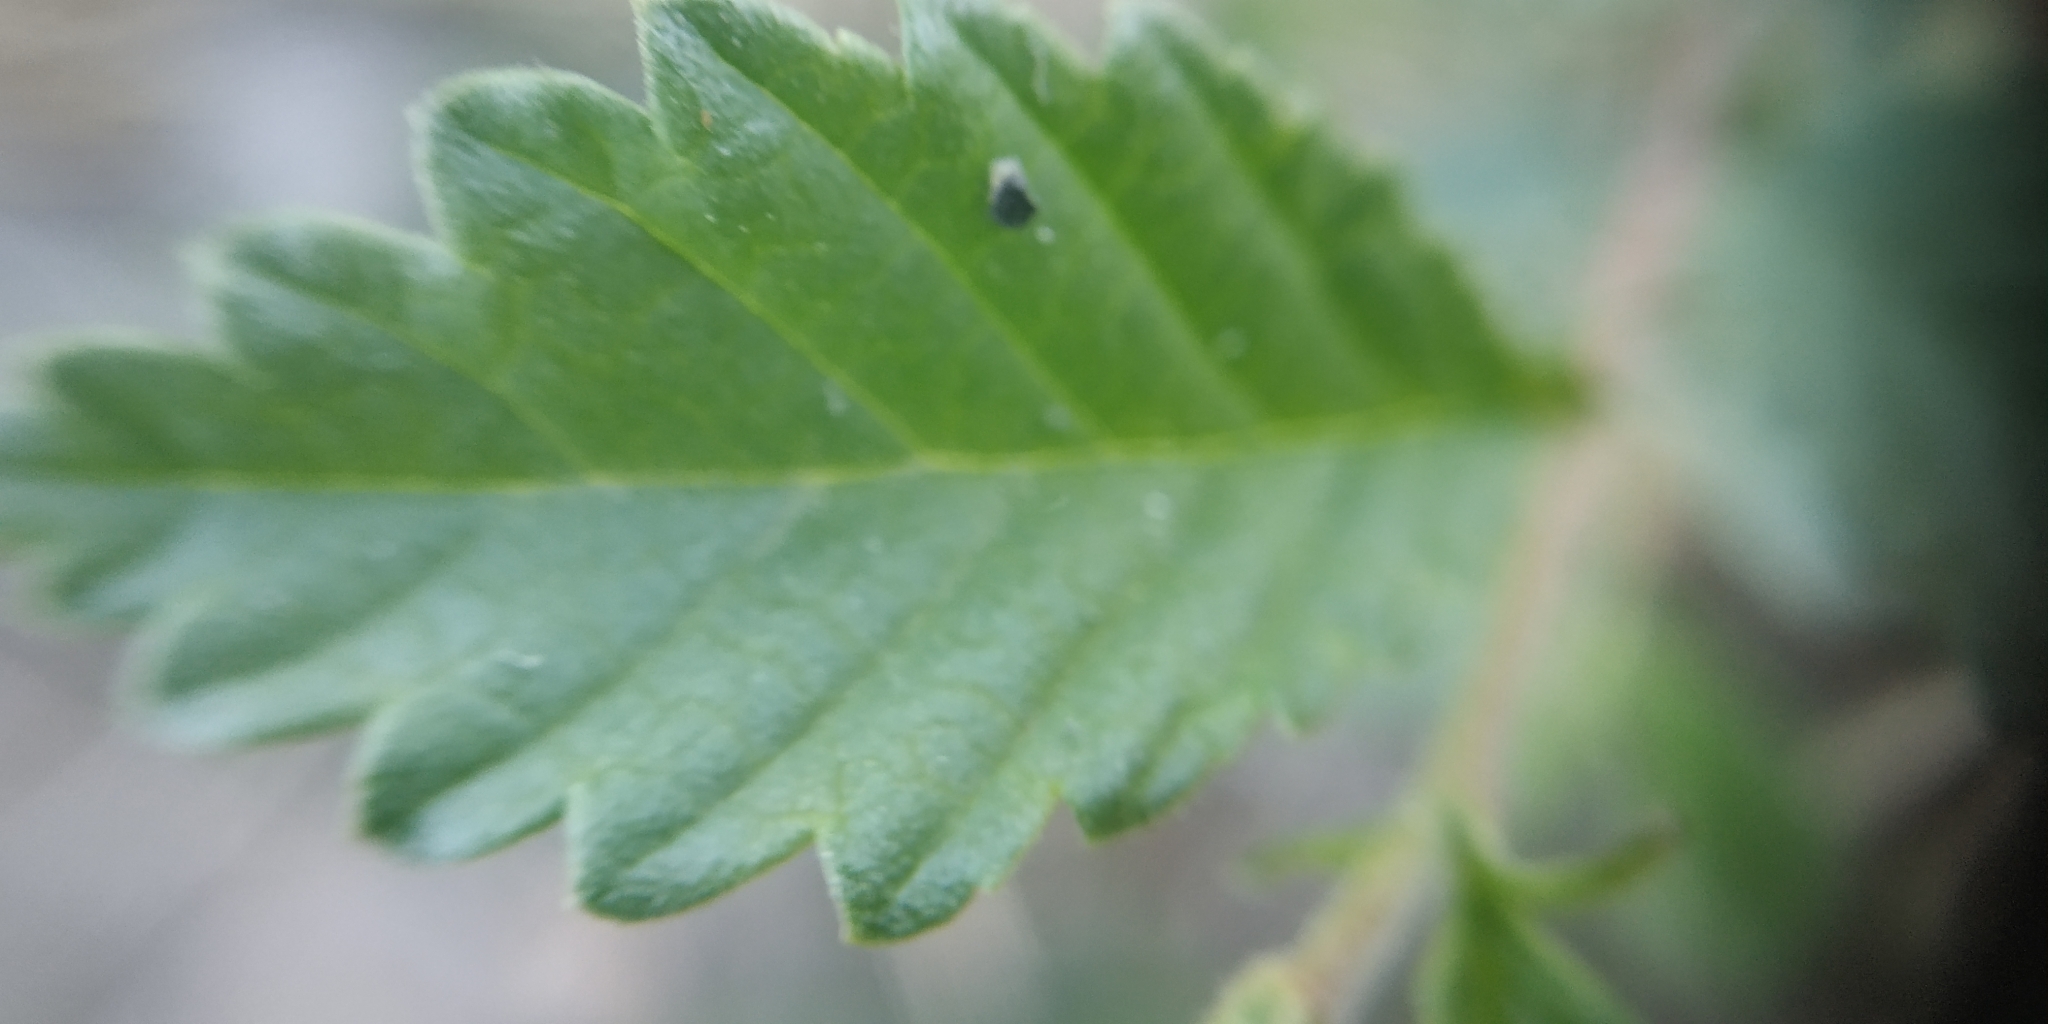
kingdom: Plantae
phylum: Tracheophyta
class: Magnoliopsida
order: Rosales
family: Ulmaceae
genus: Ulmus
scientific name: Ulmus pumila
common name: Siberian elm
